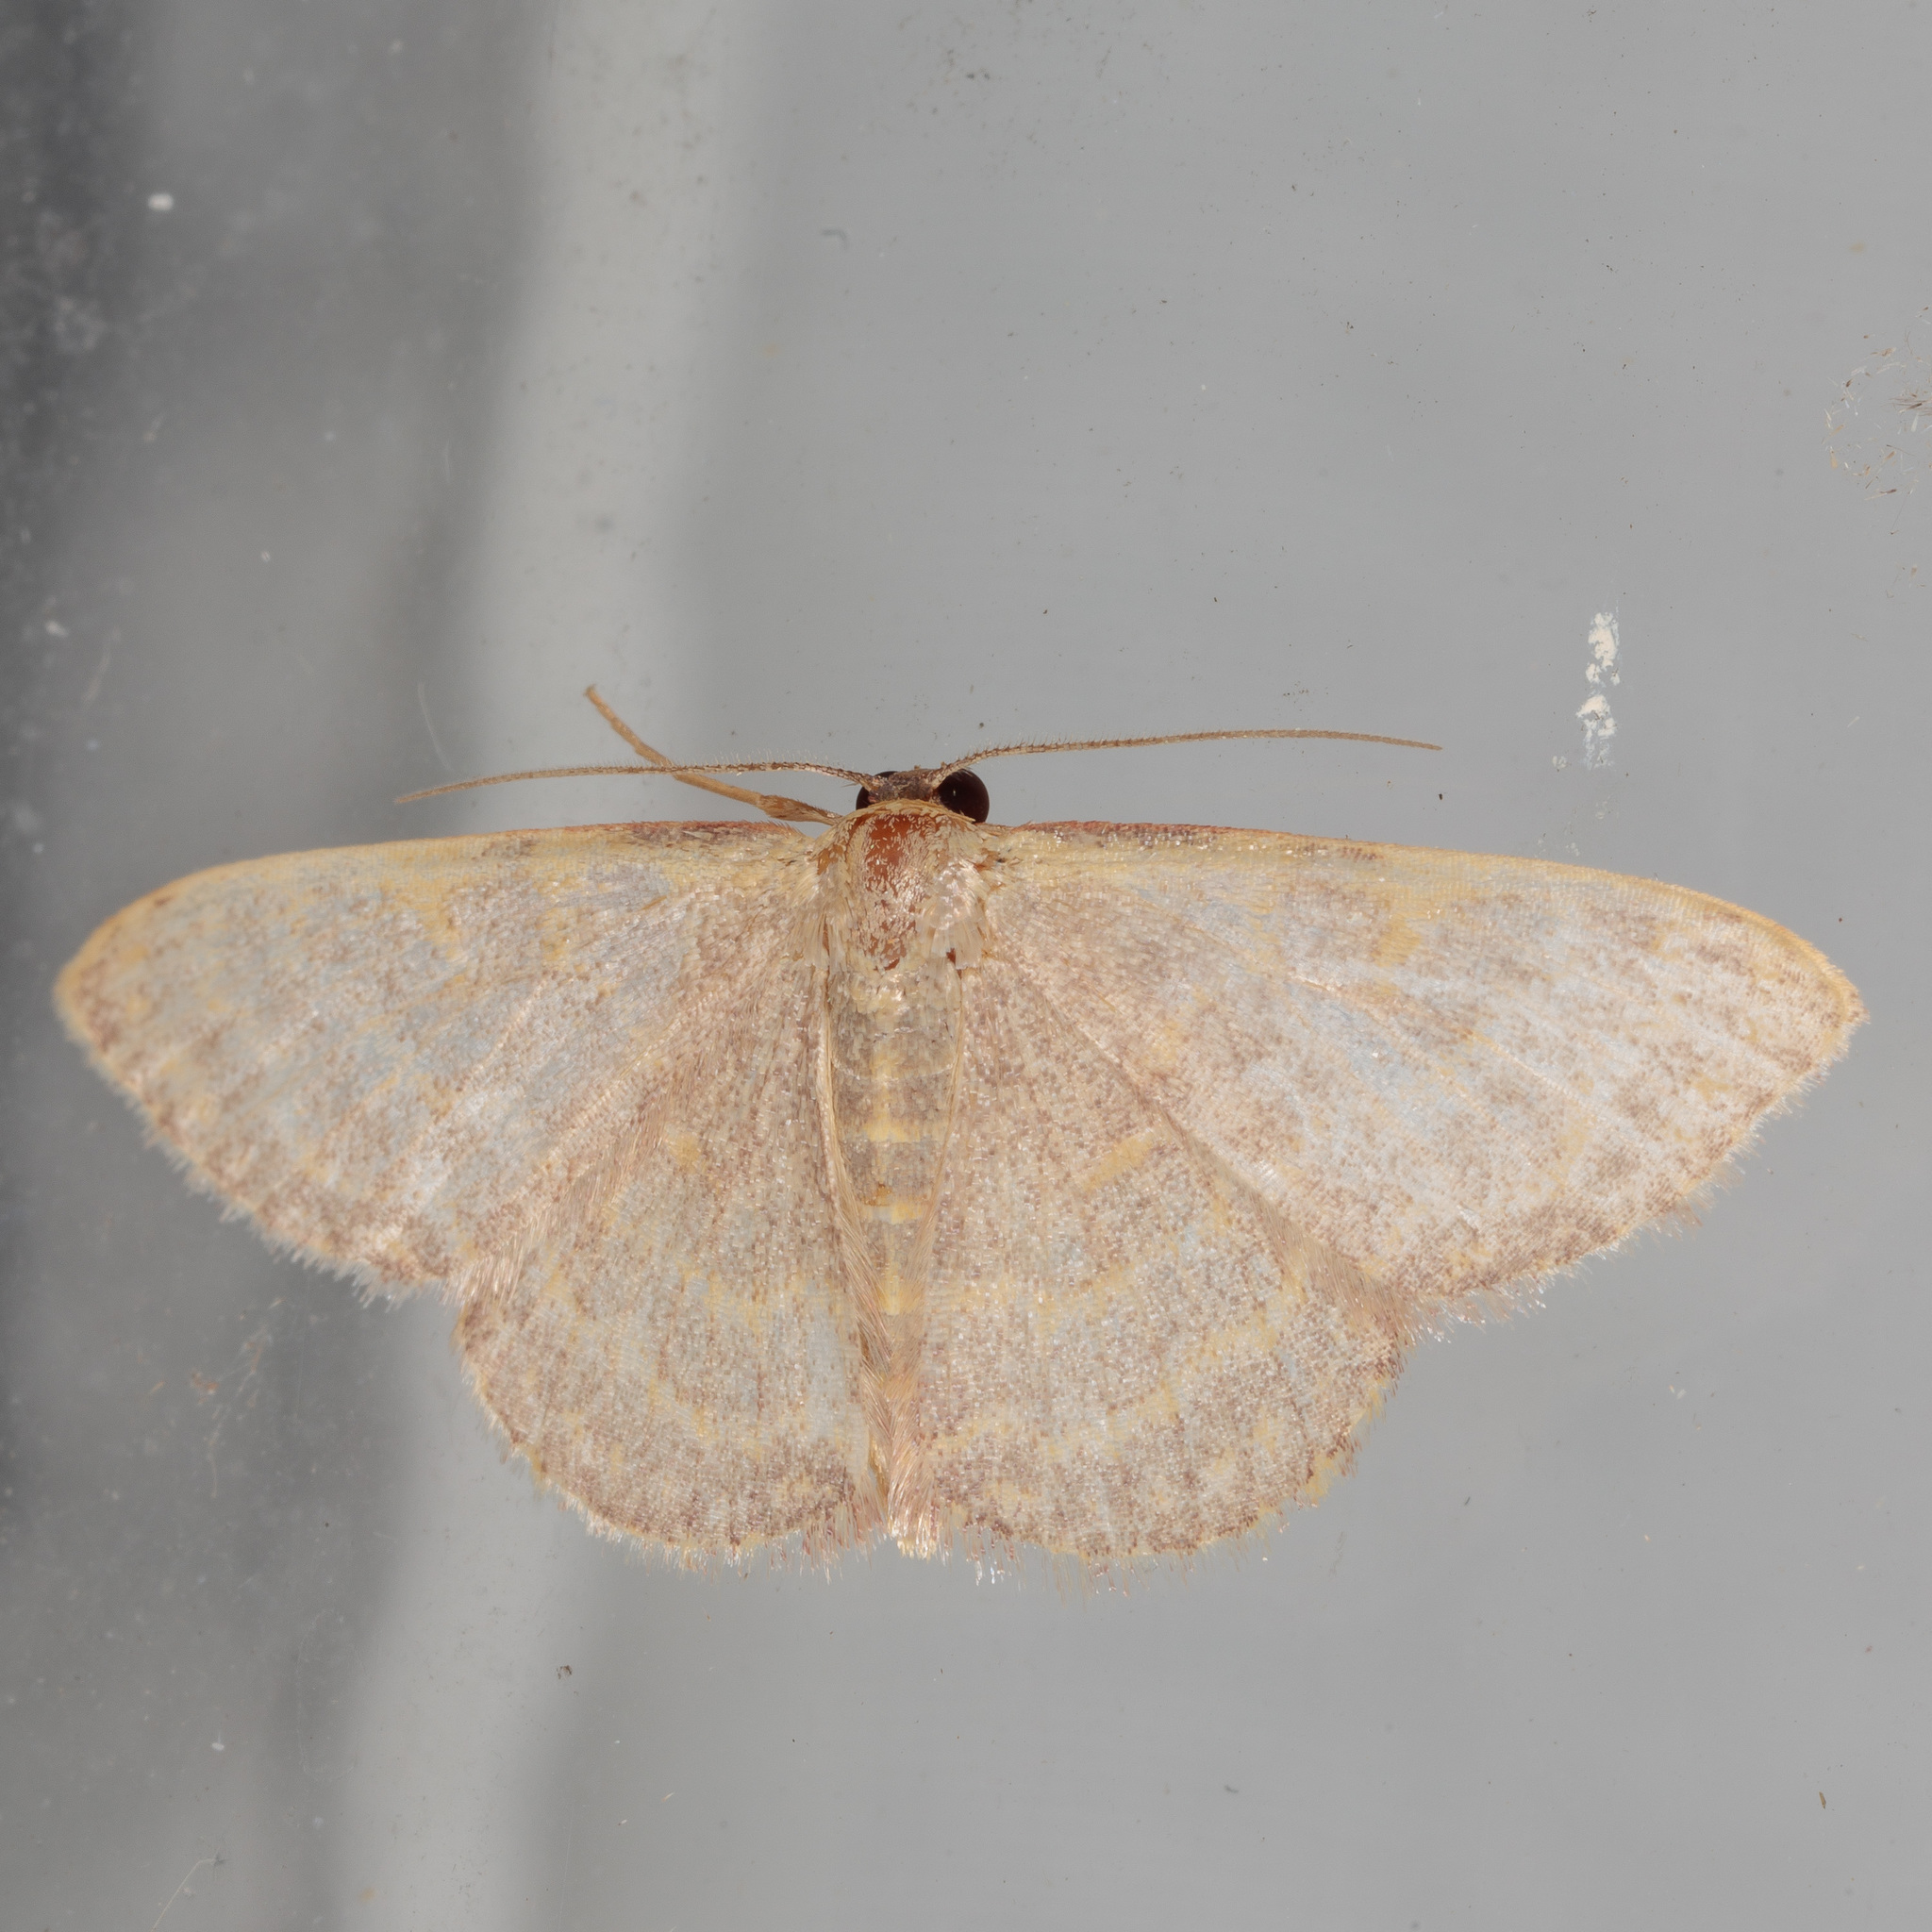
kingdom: Animalia
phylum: Arthropoda
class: Insecta
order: Lepidoptera
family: Geometridae
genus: Leptostales
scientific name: Leptostales pannaria
